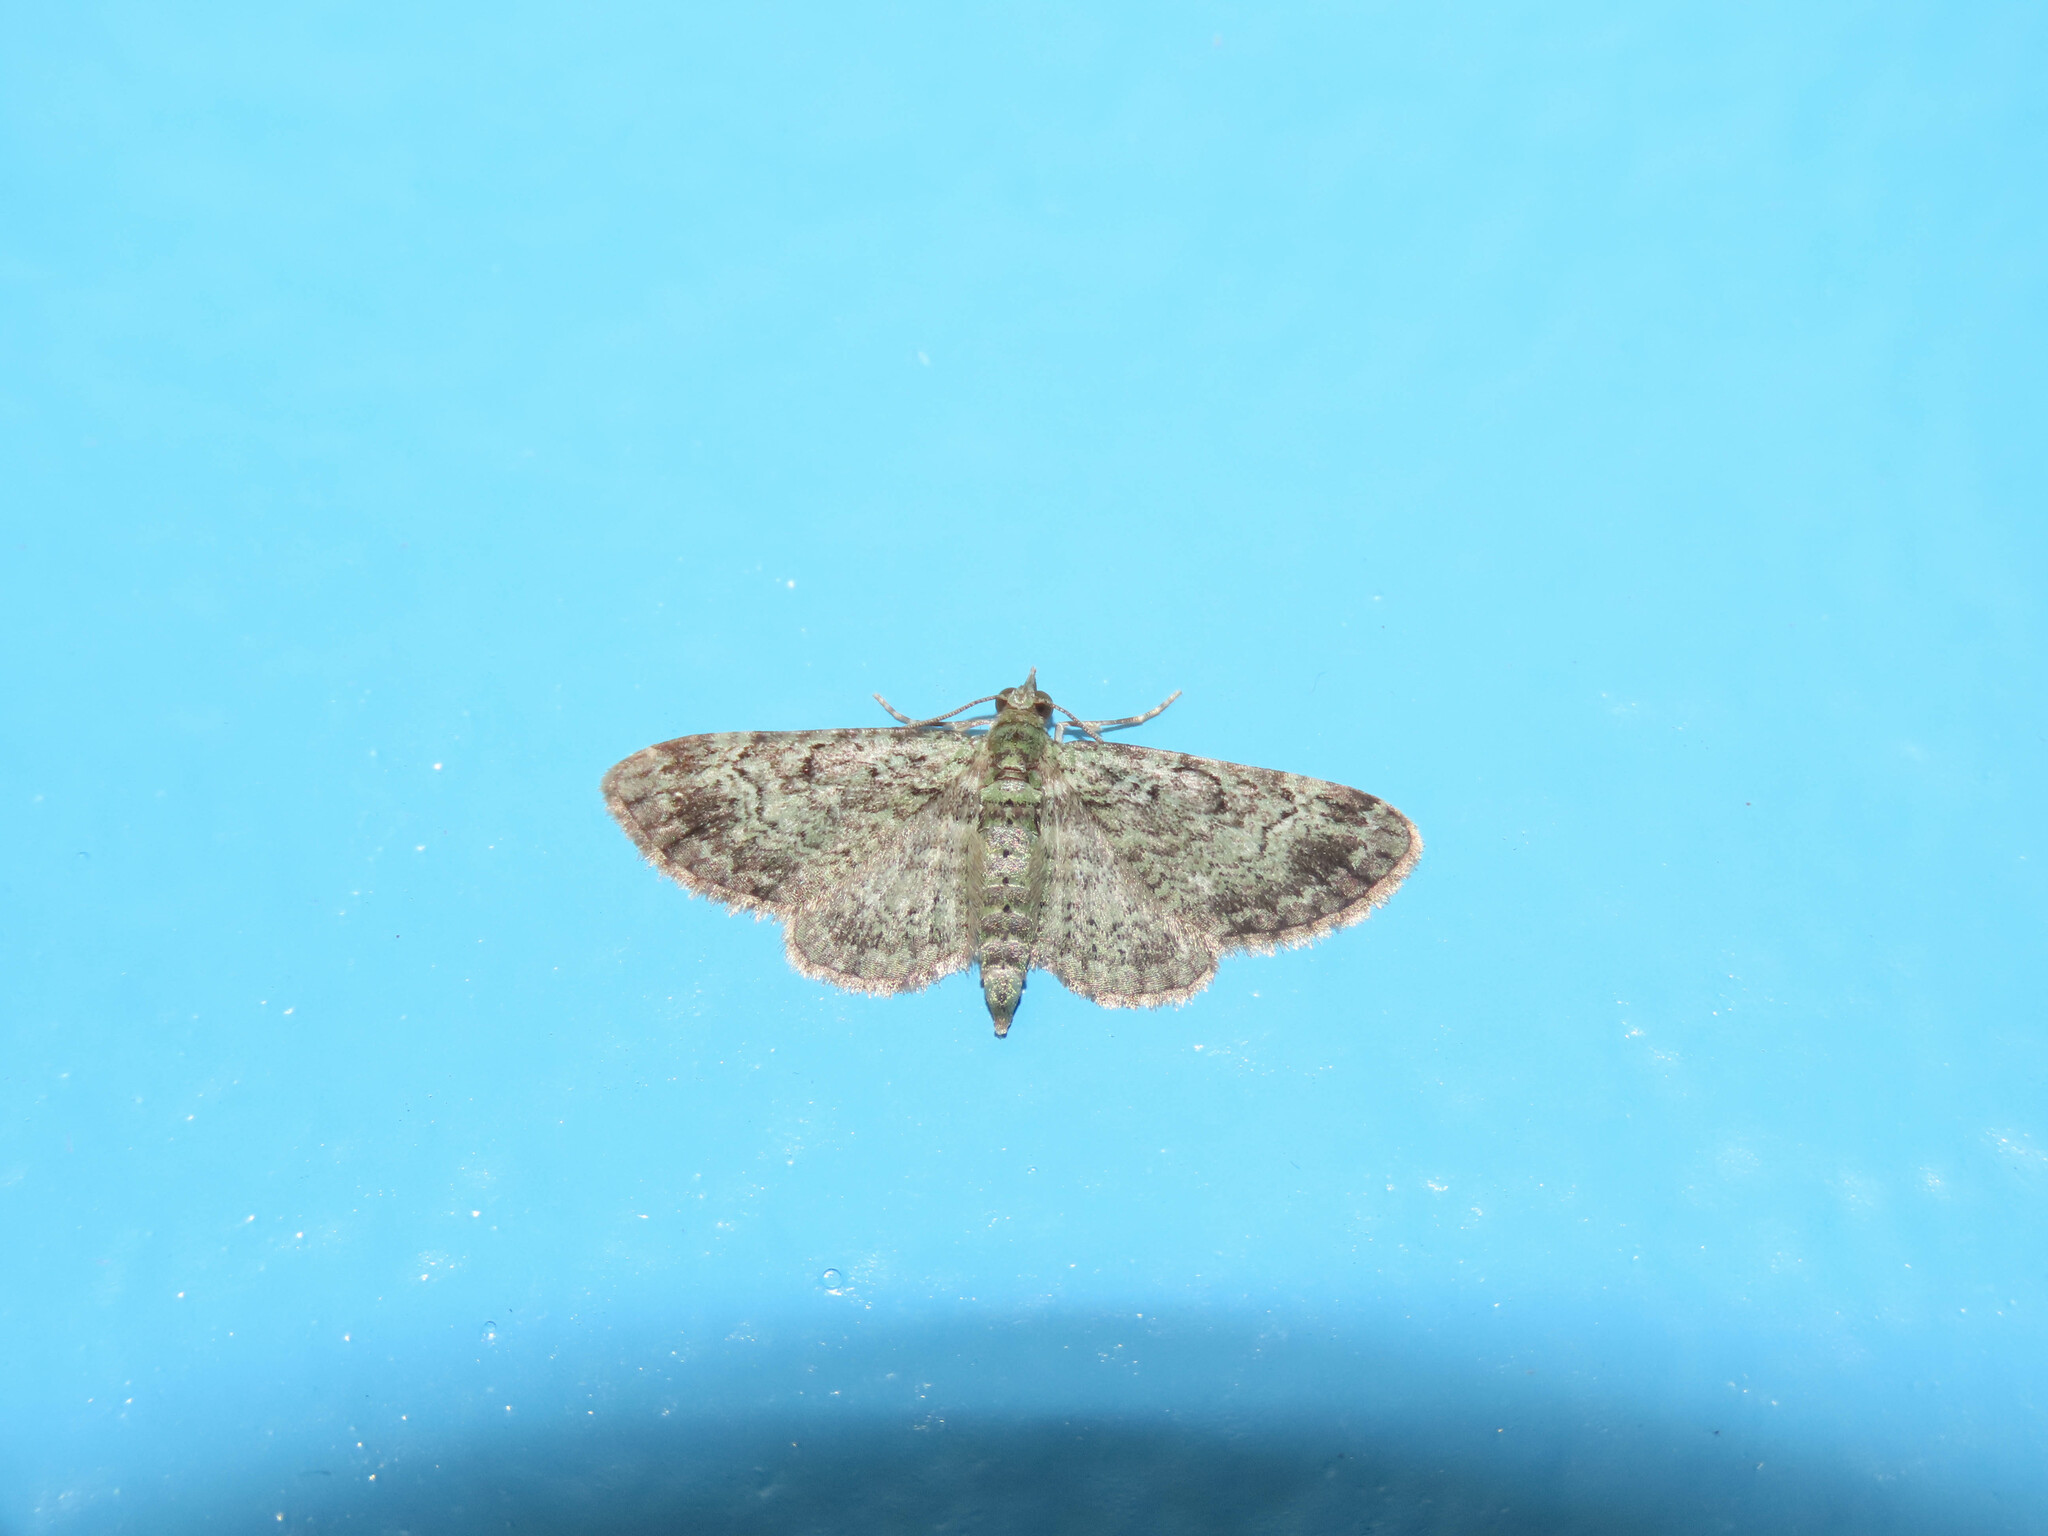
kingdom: Animalia
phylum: Arthropoda
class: Insecta
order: Lepidoptera
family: Geometridae
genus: Pasiphila
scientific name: Pasiphila rectangulata
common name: Green pug
